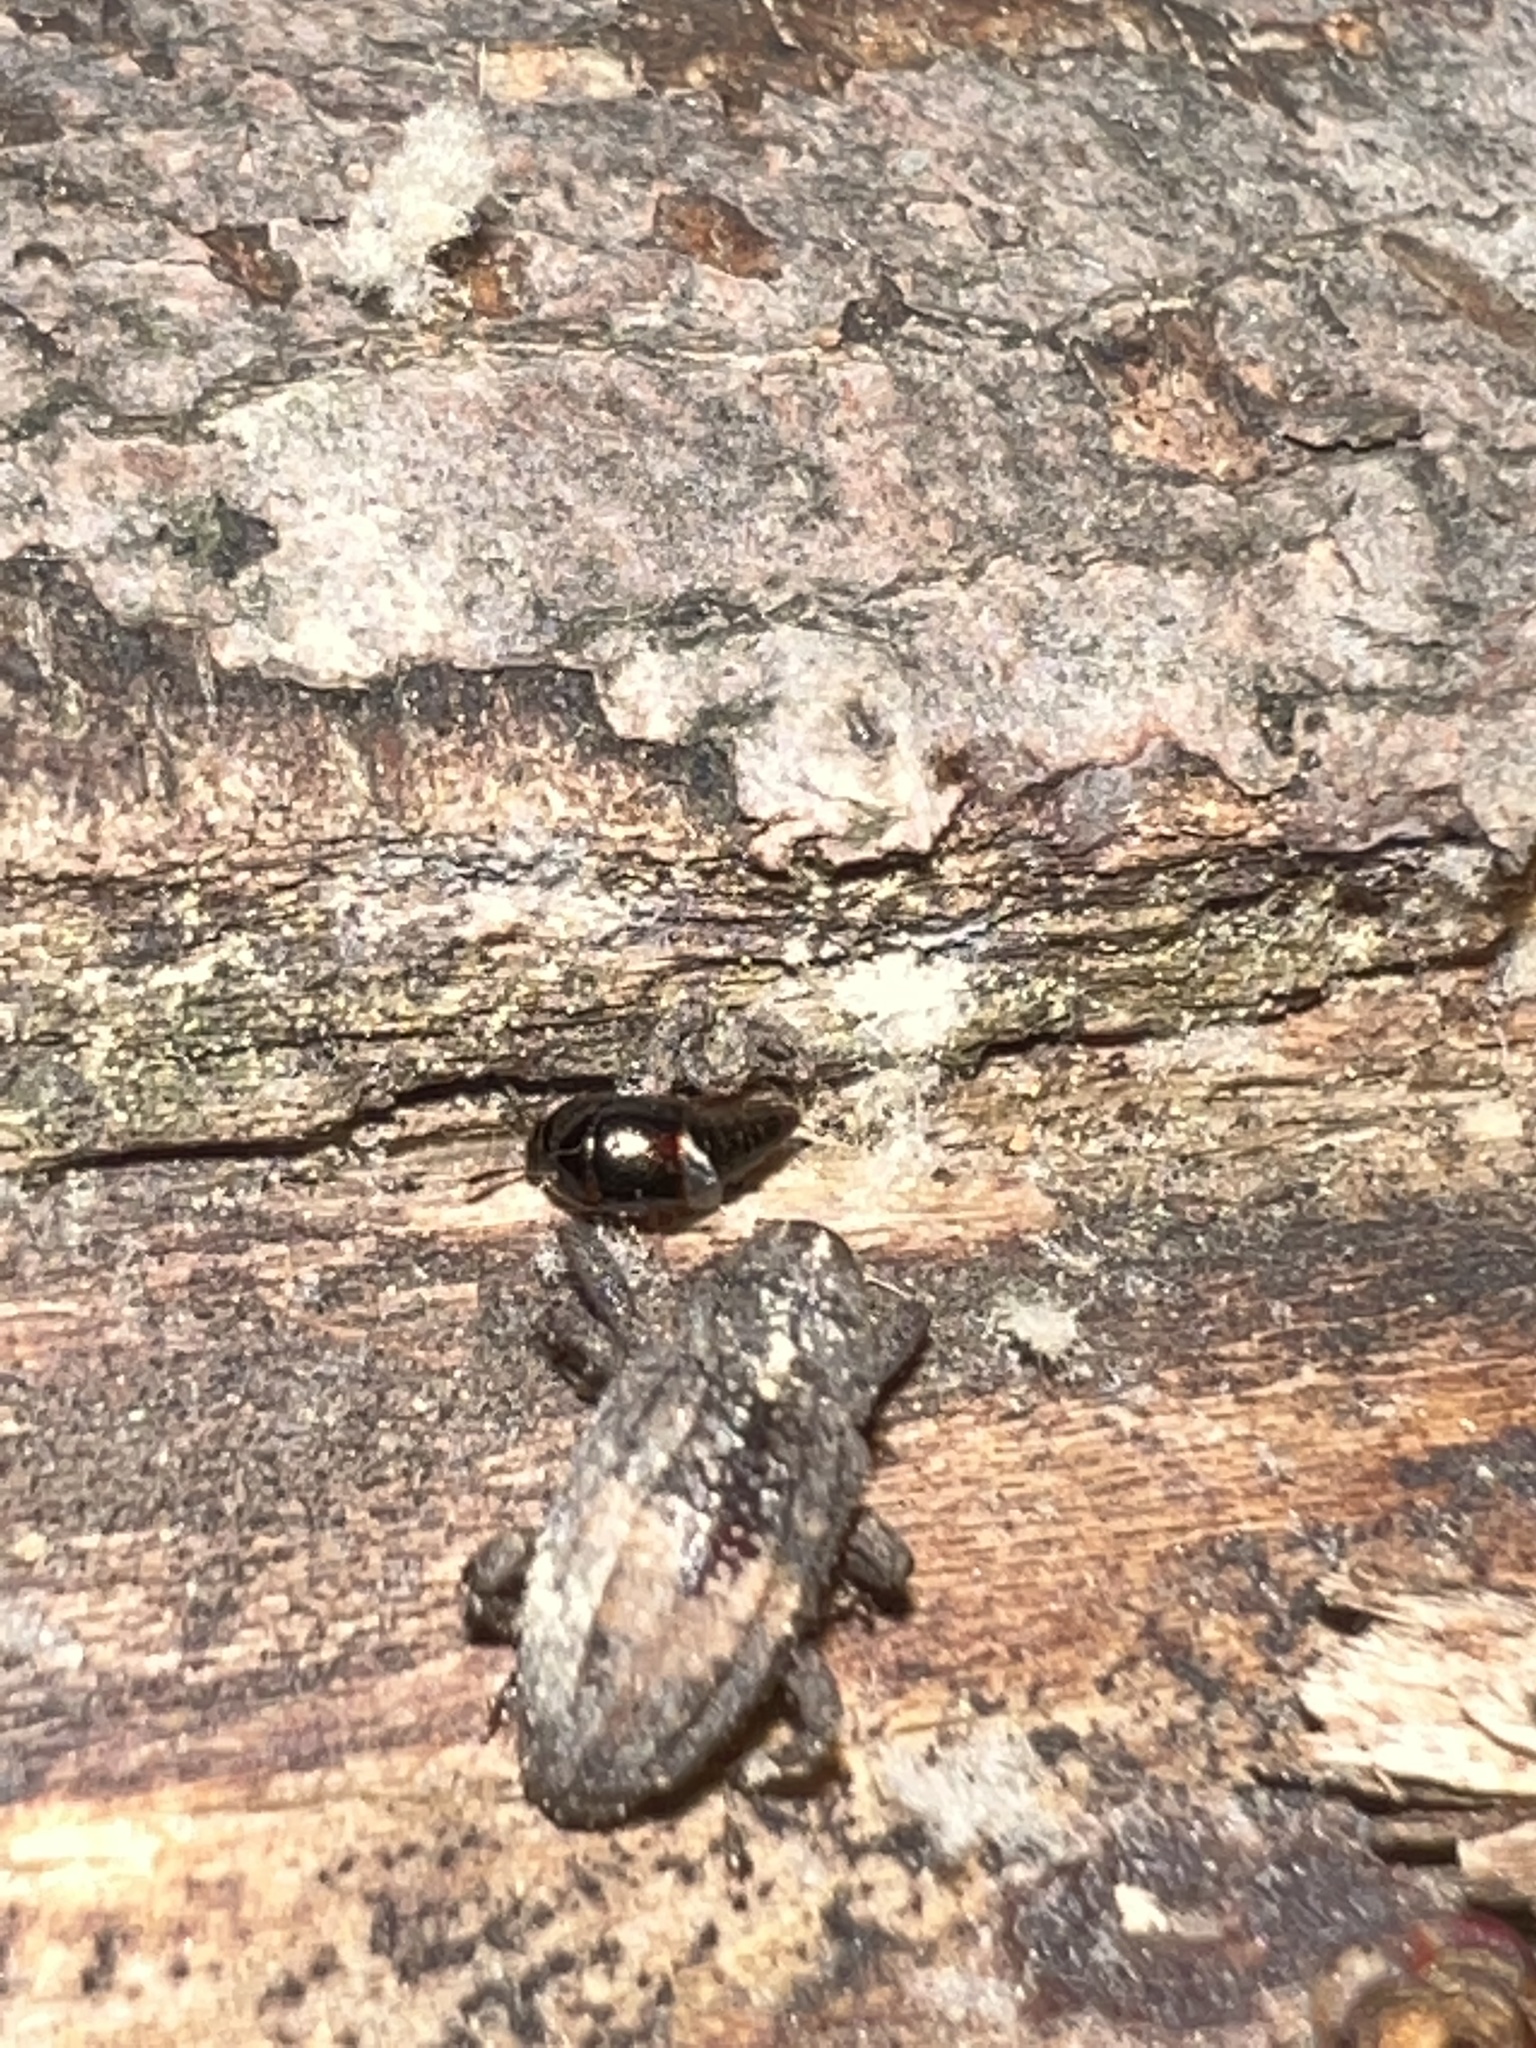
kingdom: Animalia
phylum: Arthropoda
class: Insecta
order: Coleoptera
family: Curculionidae
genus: Cophes
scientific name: Cophes obtentus
